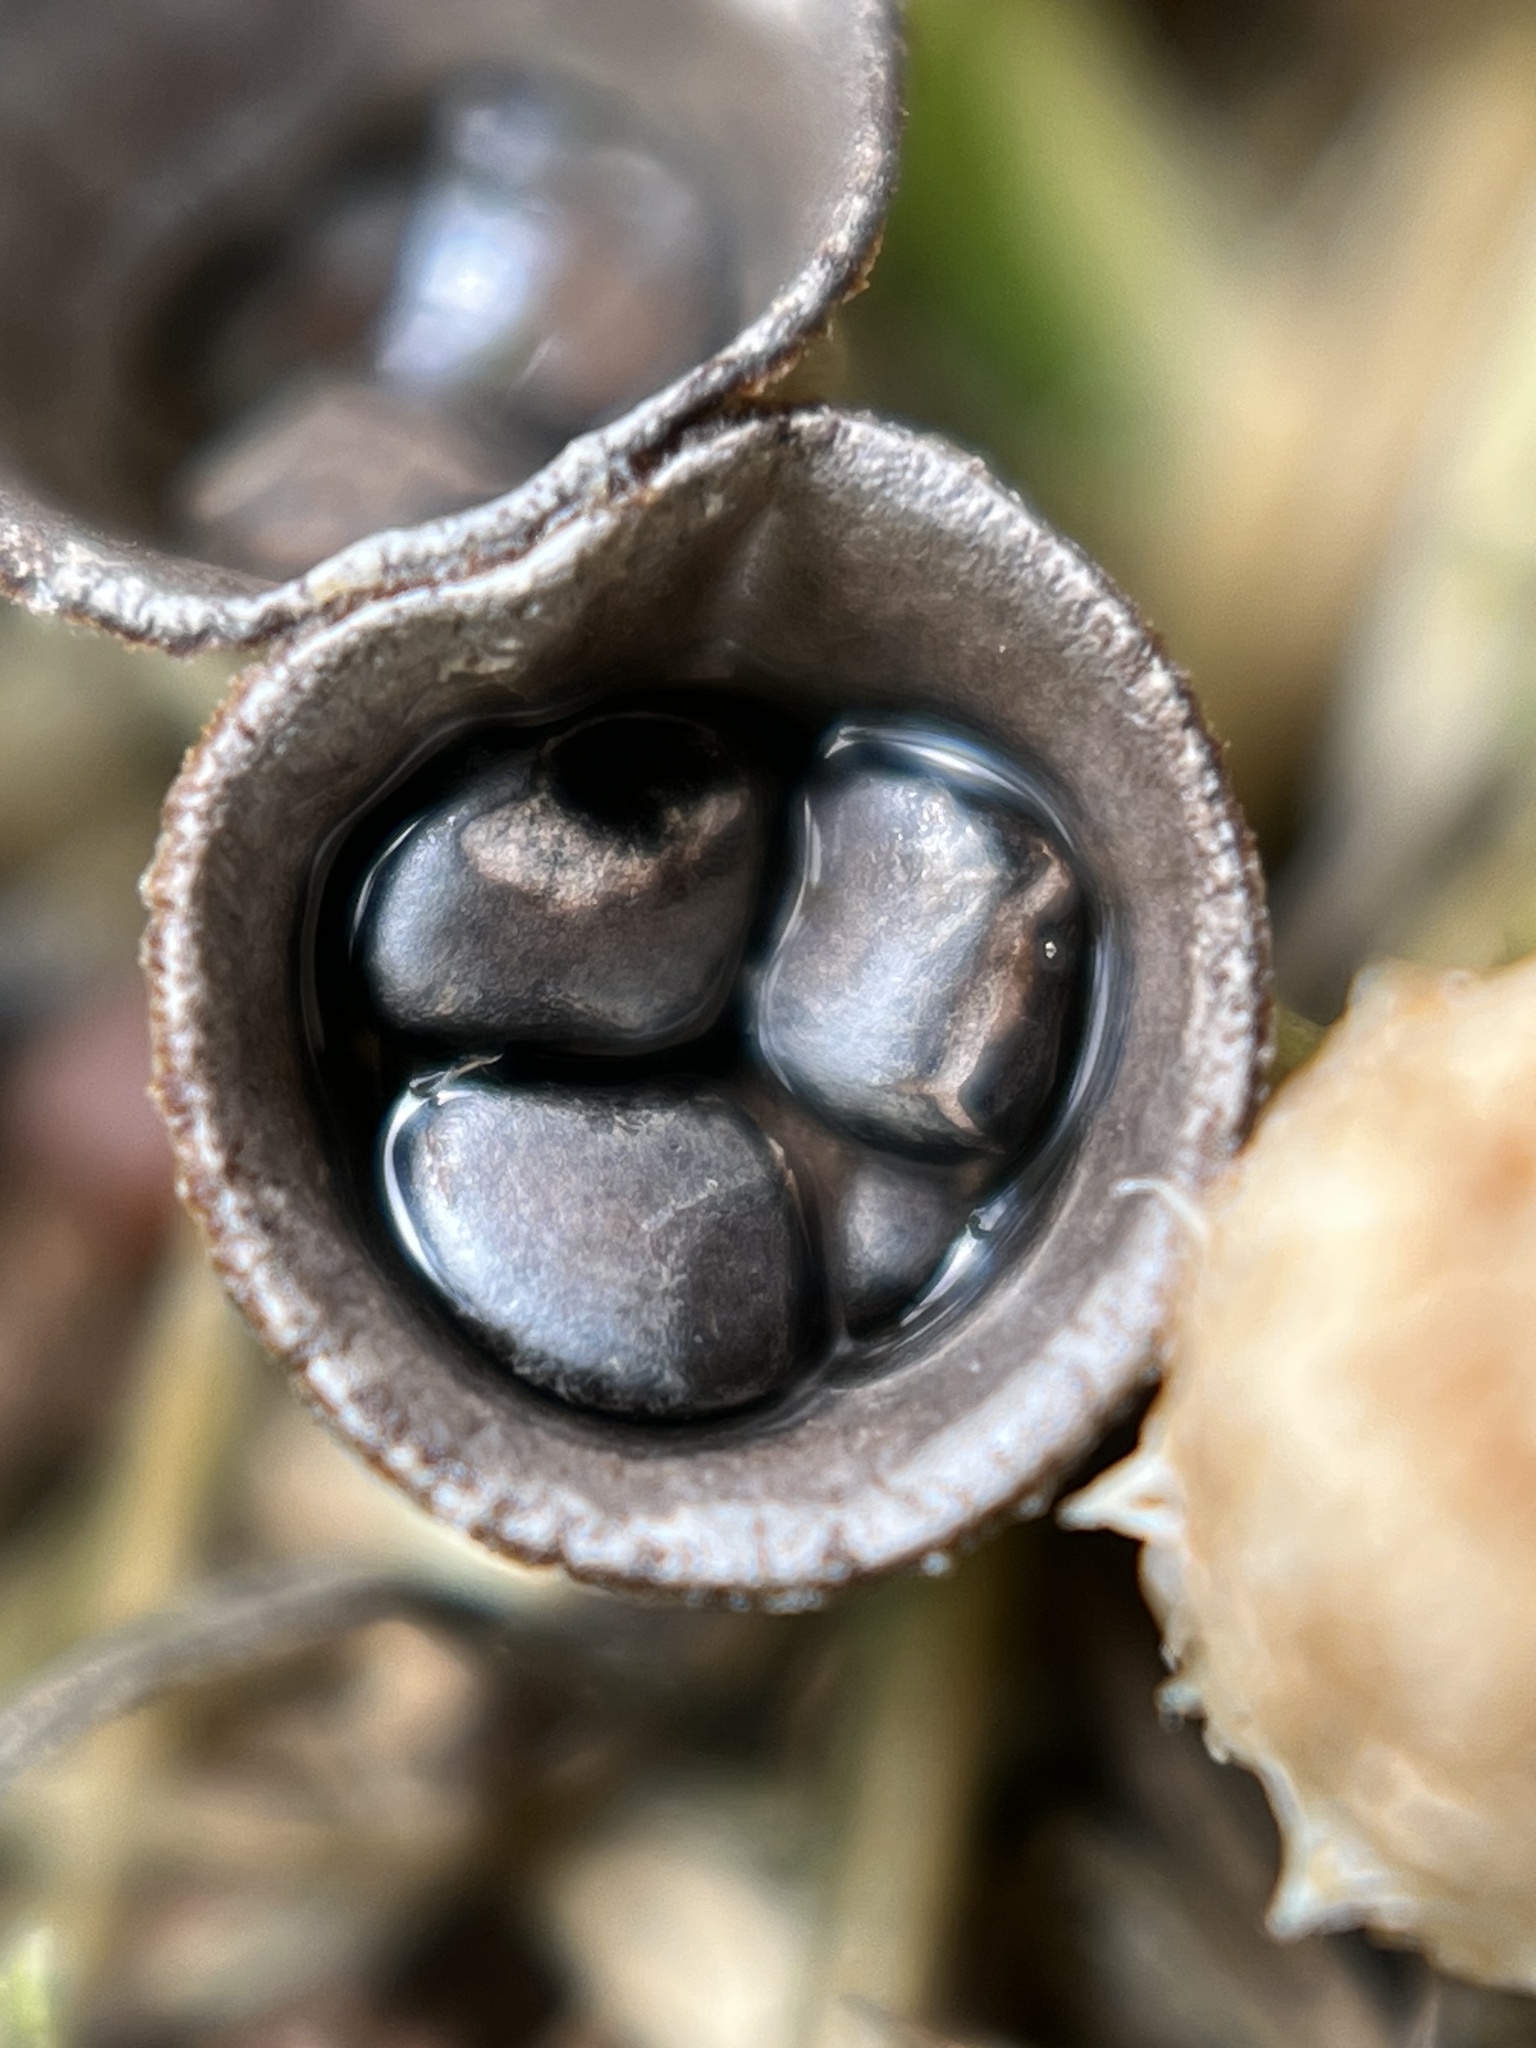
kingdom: Fungi
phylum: Basidiomycota
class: Agaricomycetes
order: Agaricales
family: Agaricaceae
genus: Cyathus
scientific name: Cyathus stercoreus
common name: Dung bird's nest
